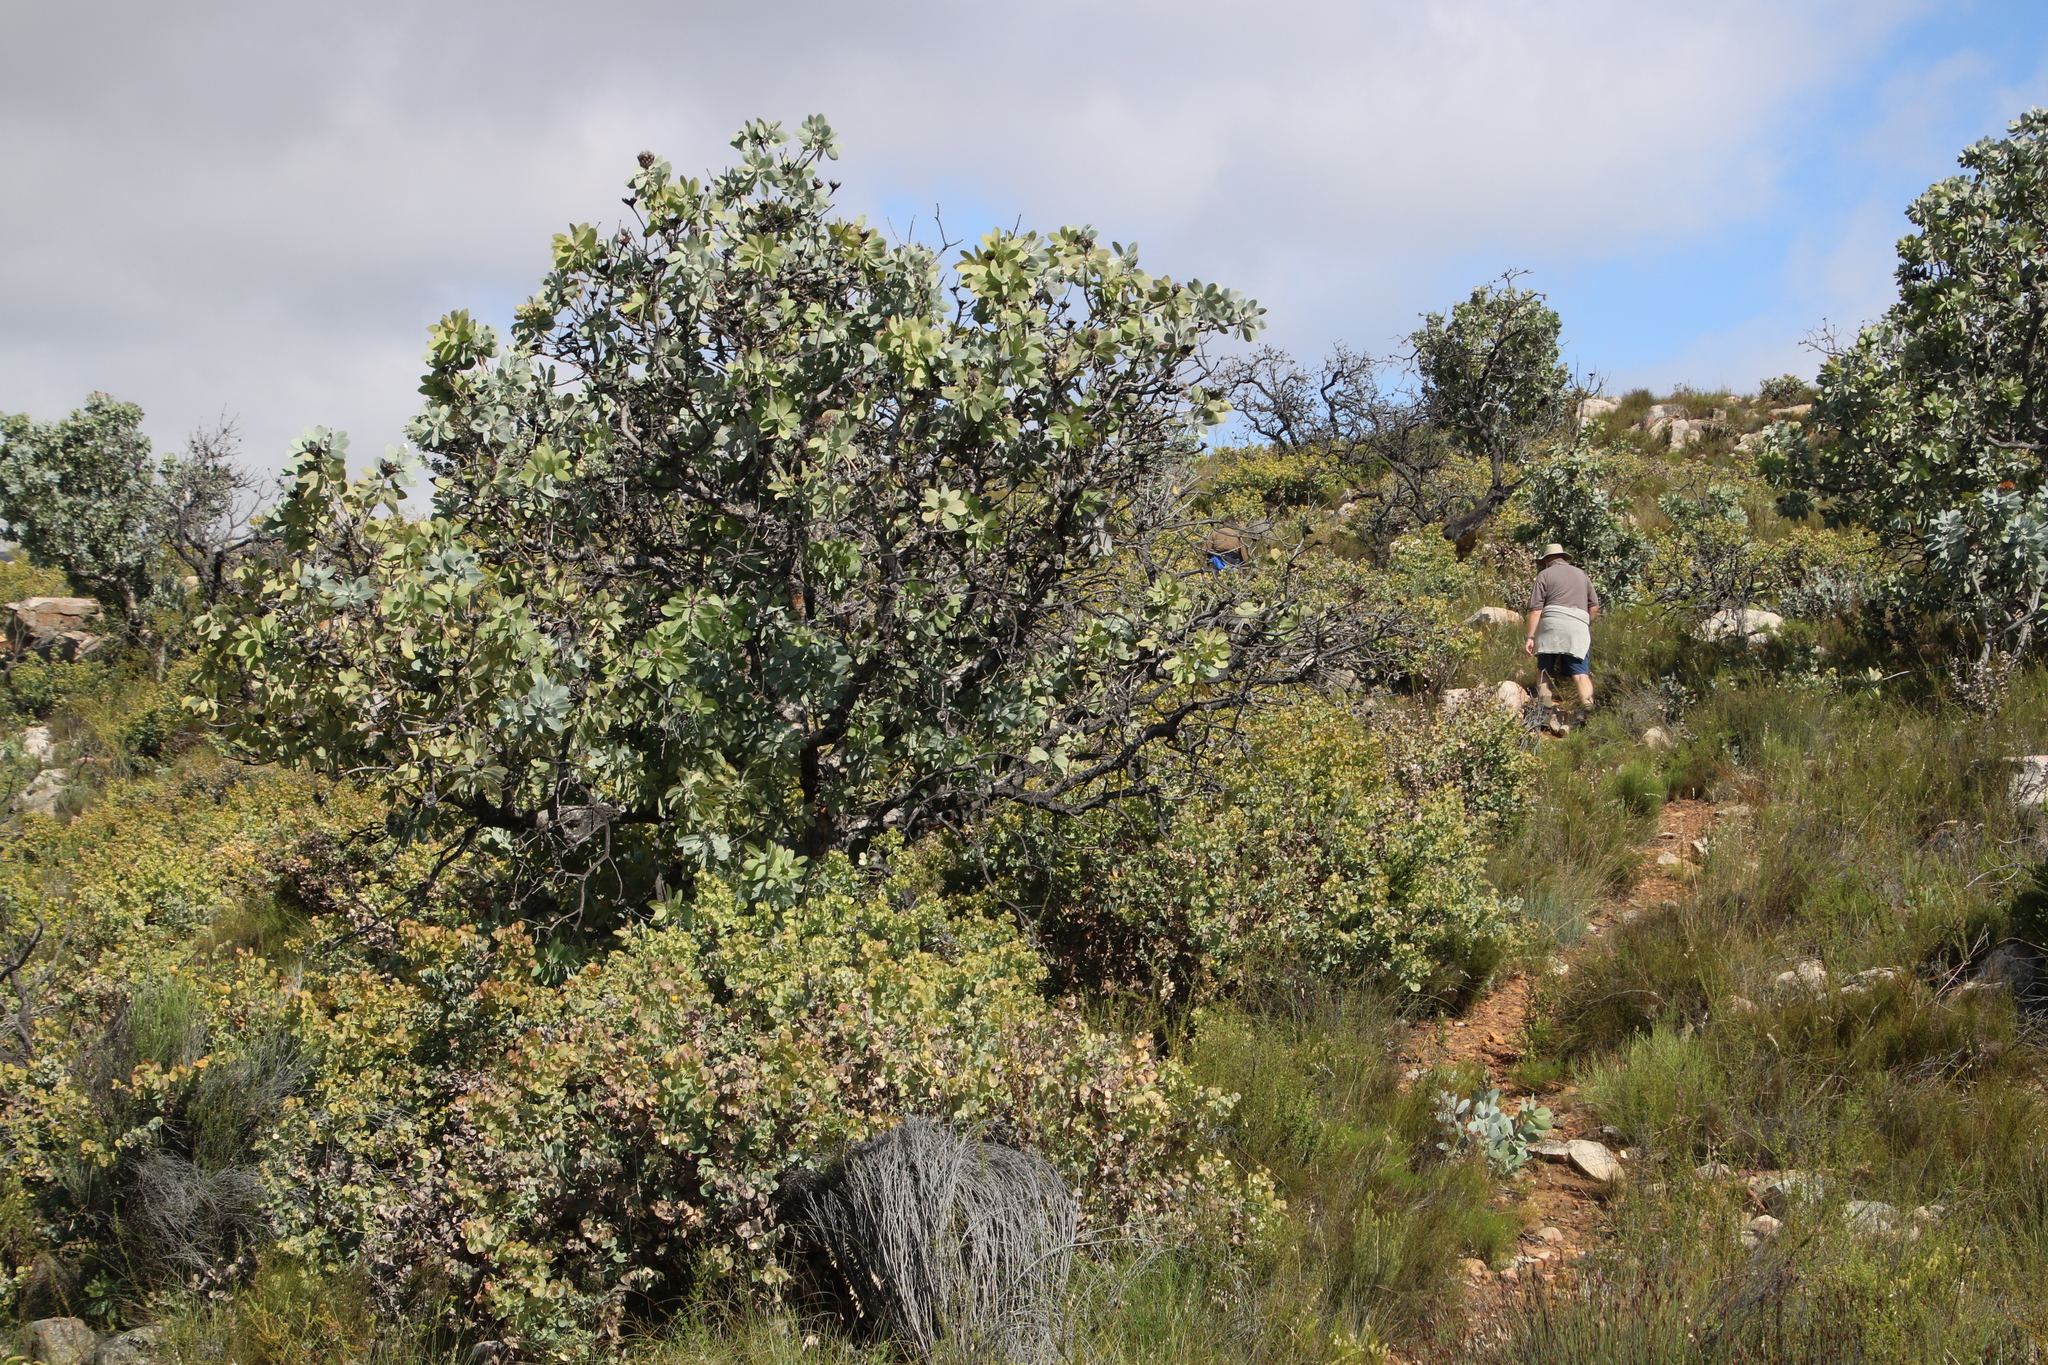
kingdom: Plantae
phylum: Tracheophyta
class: Magnoliopsida
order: Fabales
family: Fabaceae
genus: Rafnia
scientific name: Rafnia amplexicaulis
